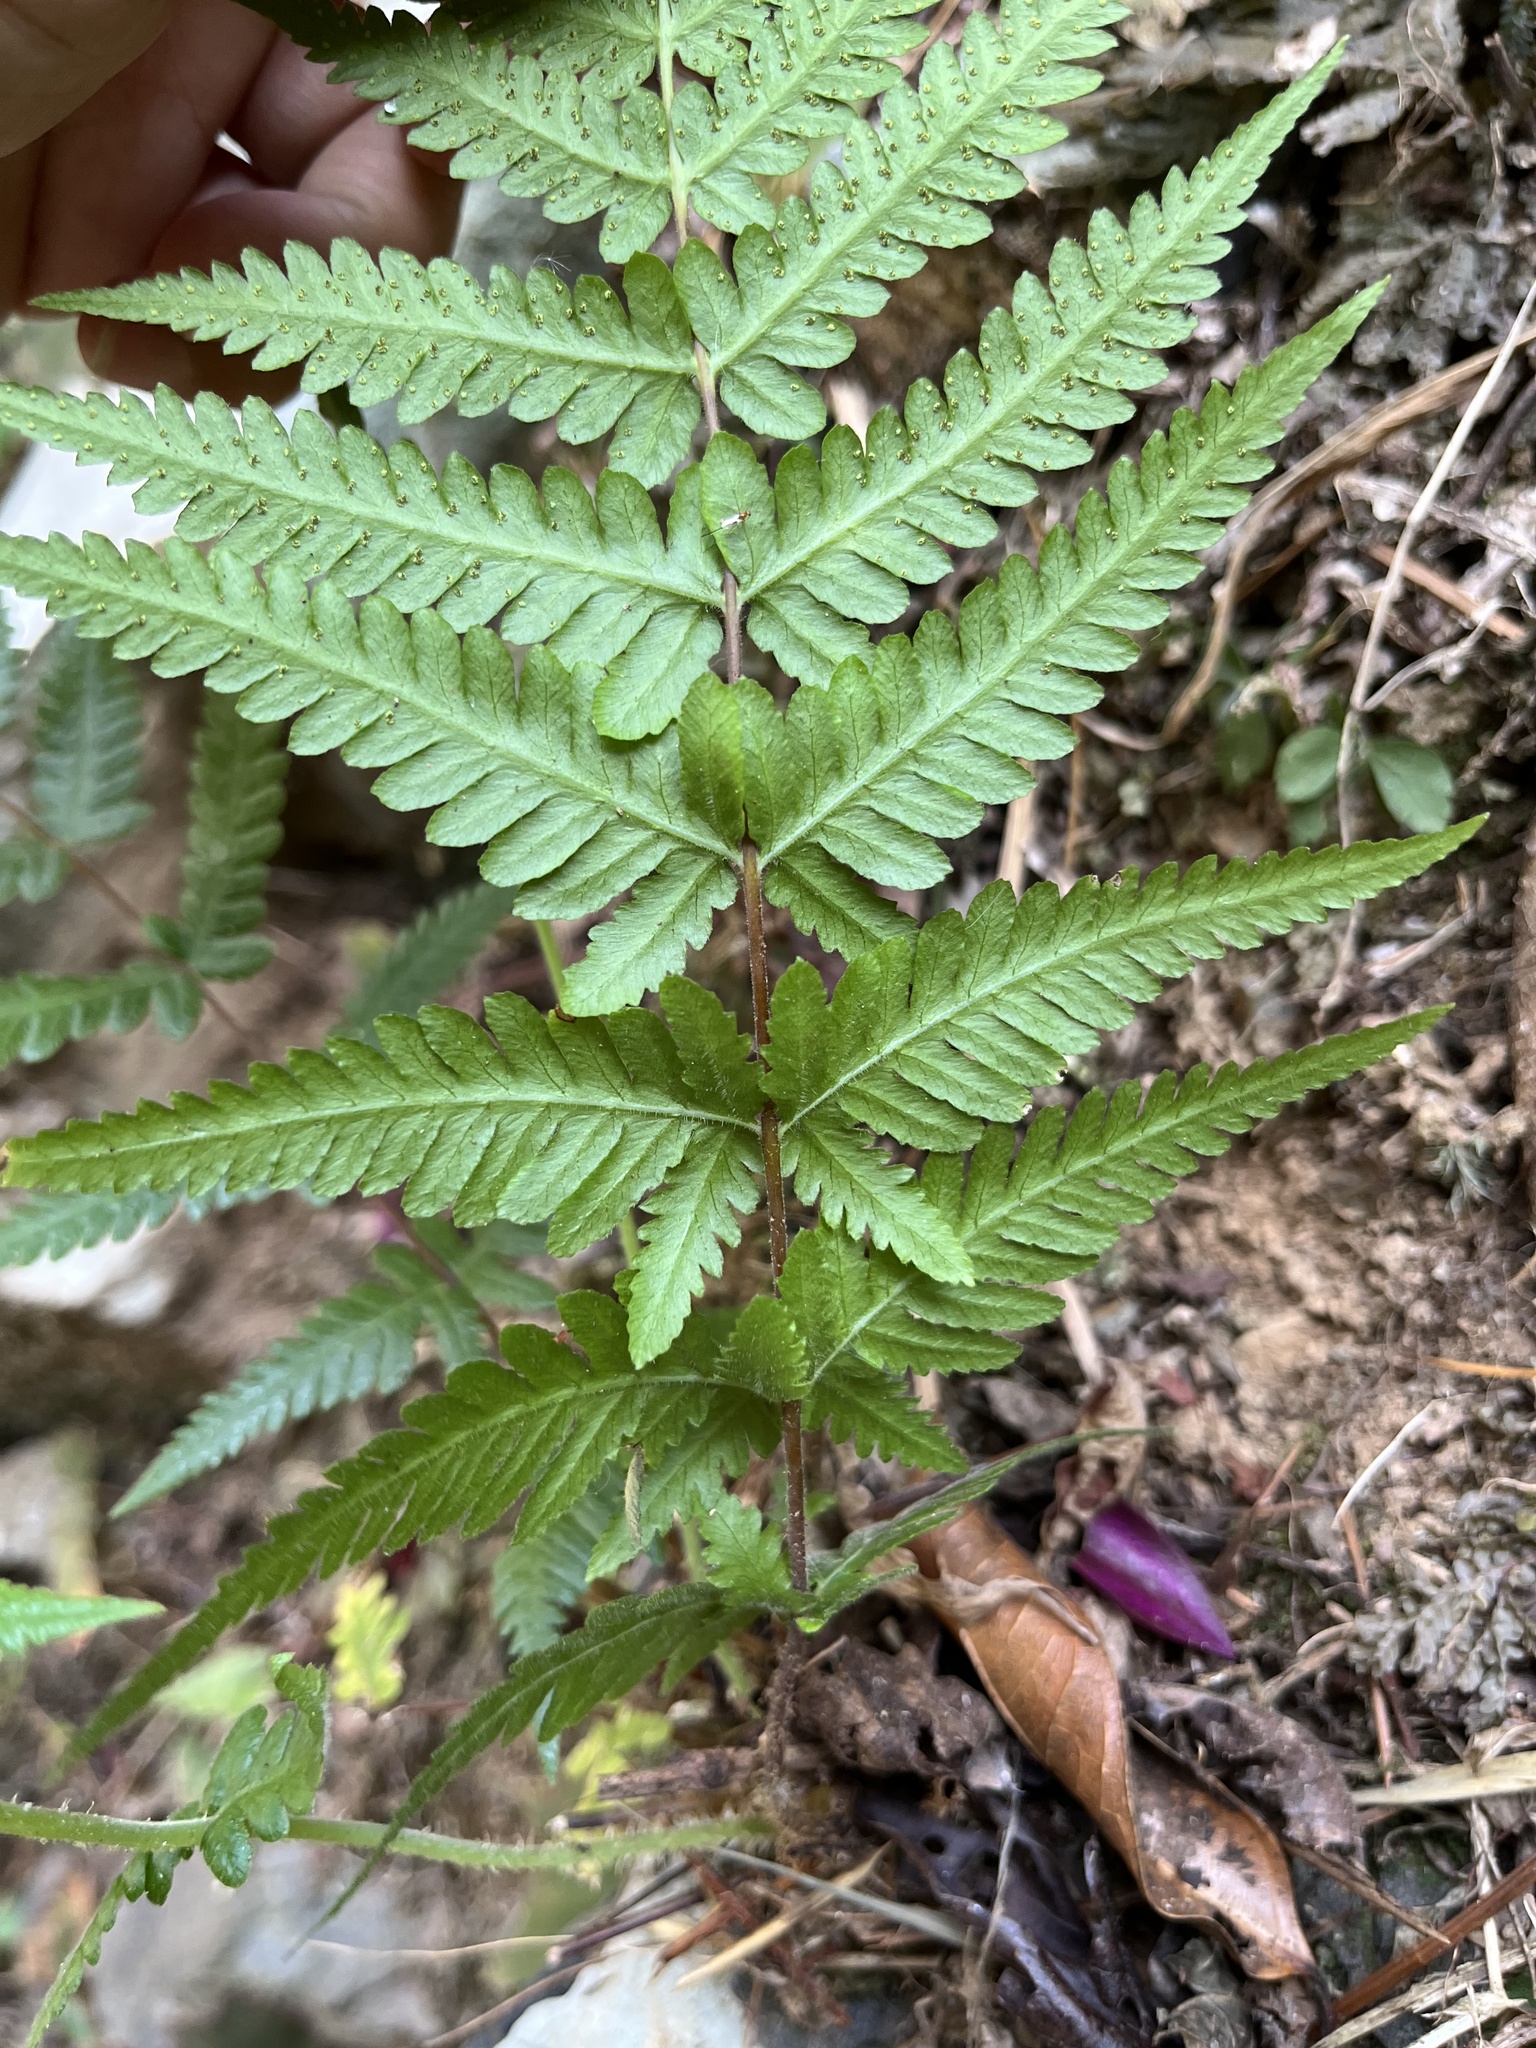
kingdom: Plantae
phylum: Tracheophyta
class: Polypodiopsida
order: Polypodiales
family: Thelypteridaceae
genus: Pseudophegopteris
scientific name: Pseudophegopteris subaurita
